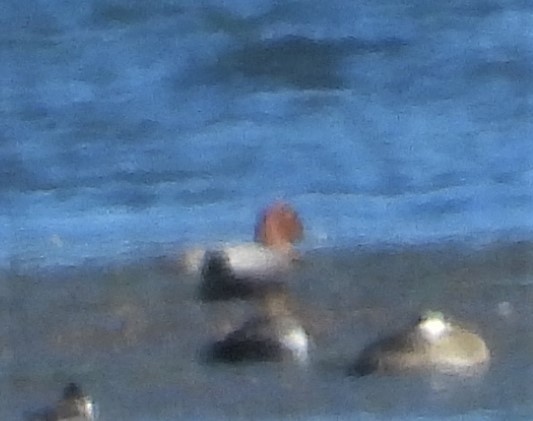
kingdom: Animalia
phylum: Chordata
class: Aves
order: Anseriformes
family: Anatidae
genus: Aythya
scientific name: Aythya americana
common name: Redhead
